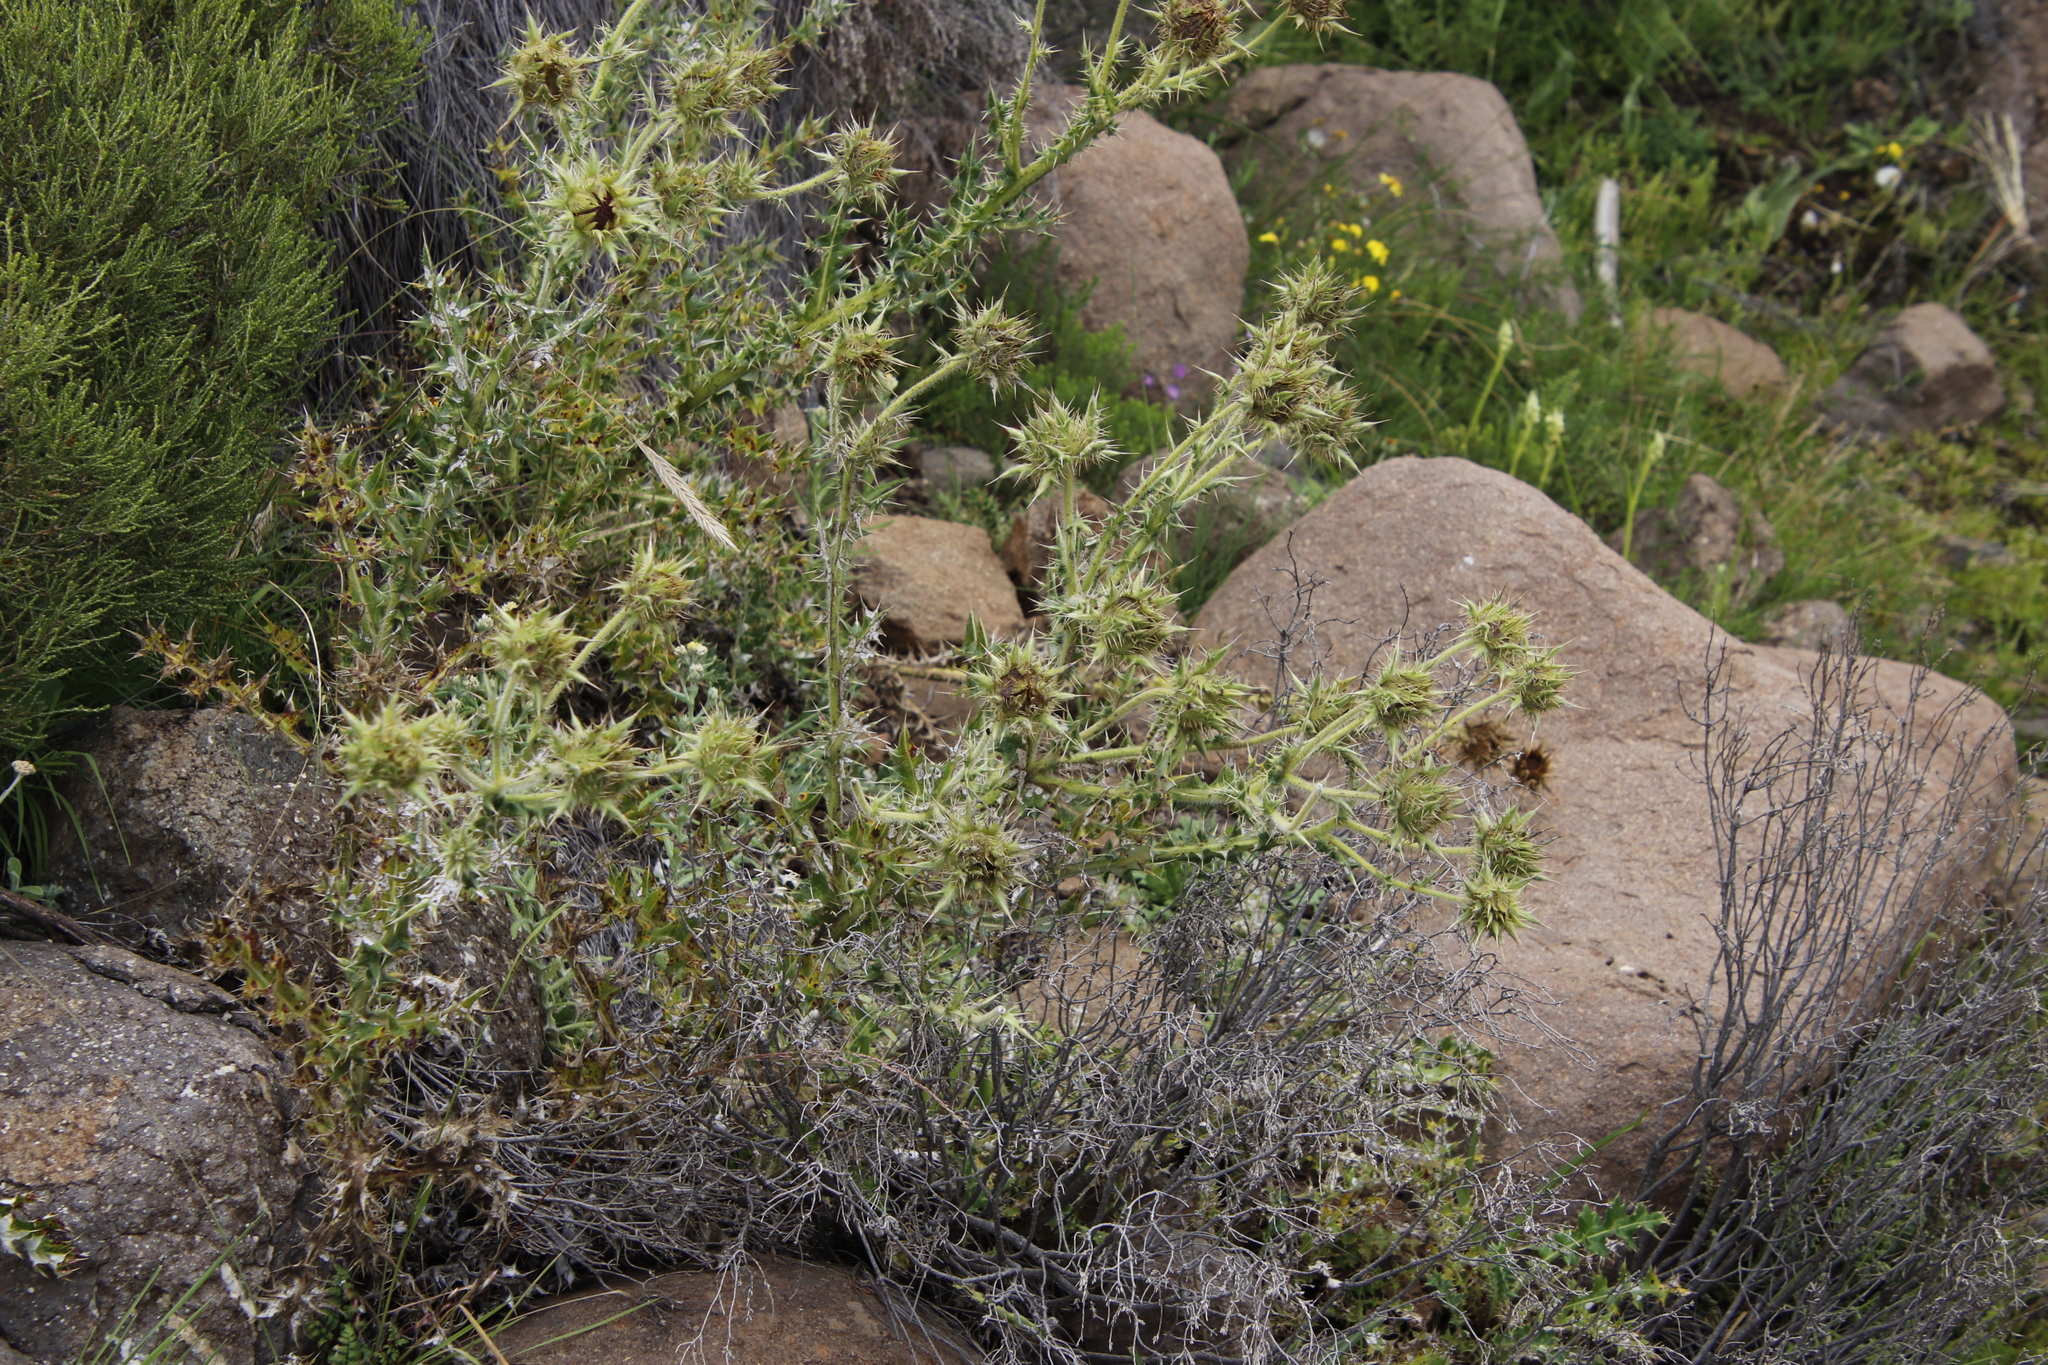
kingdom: Plantae
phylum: Tracheophyta
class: Magnoliopsida
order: Asterales
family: Asteraceae
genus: Berkheya
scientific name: Berkheya cirsiifolia
